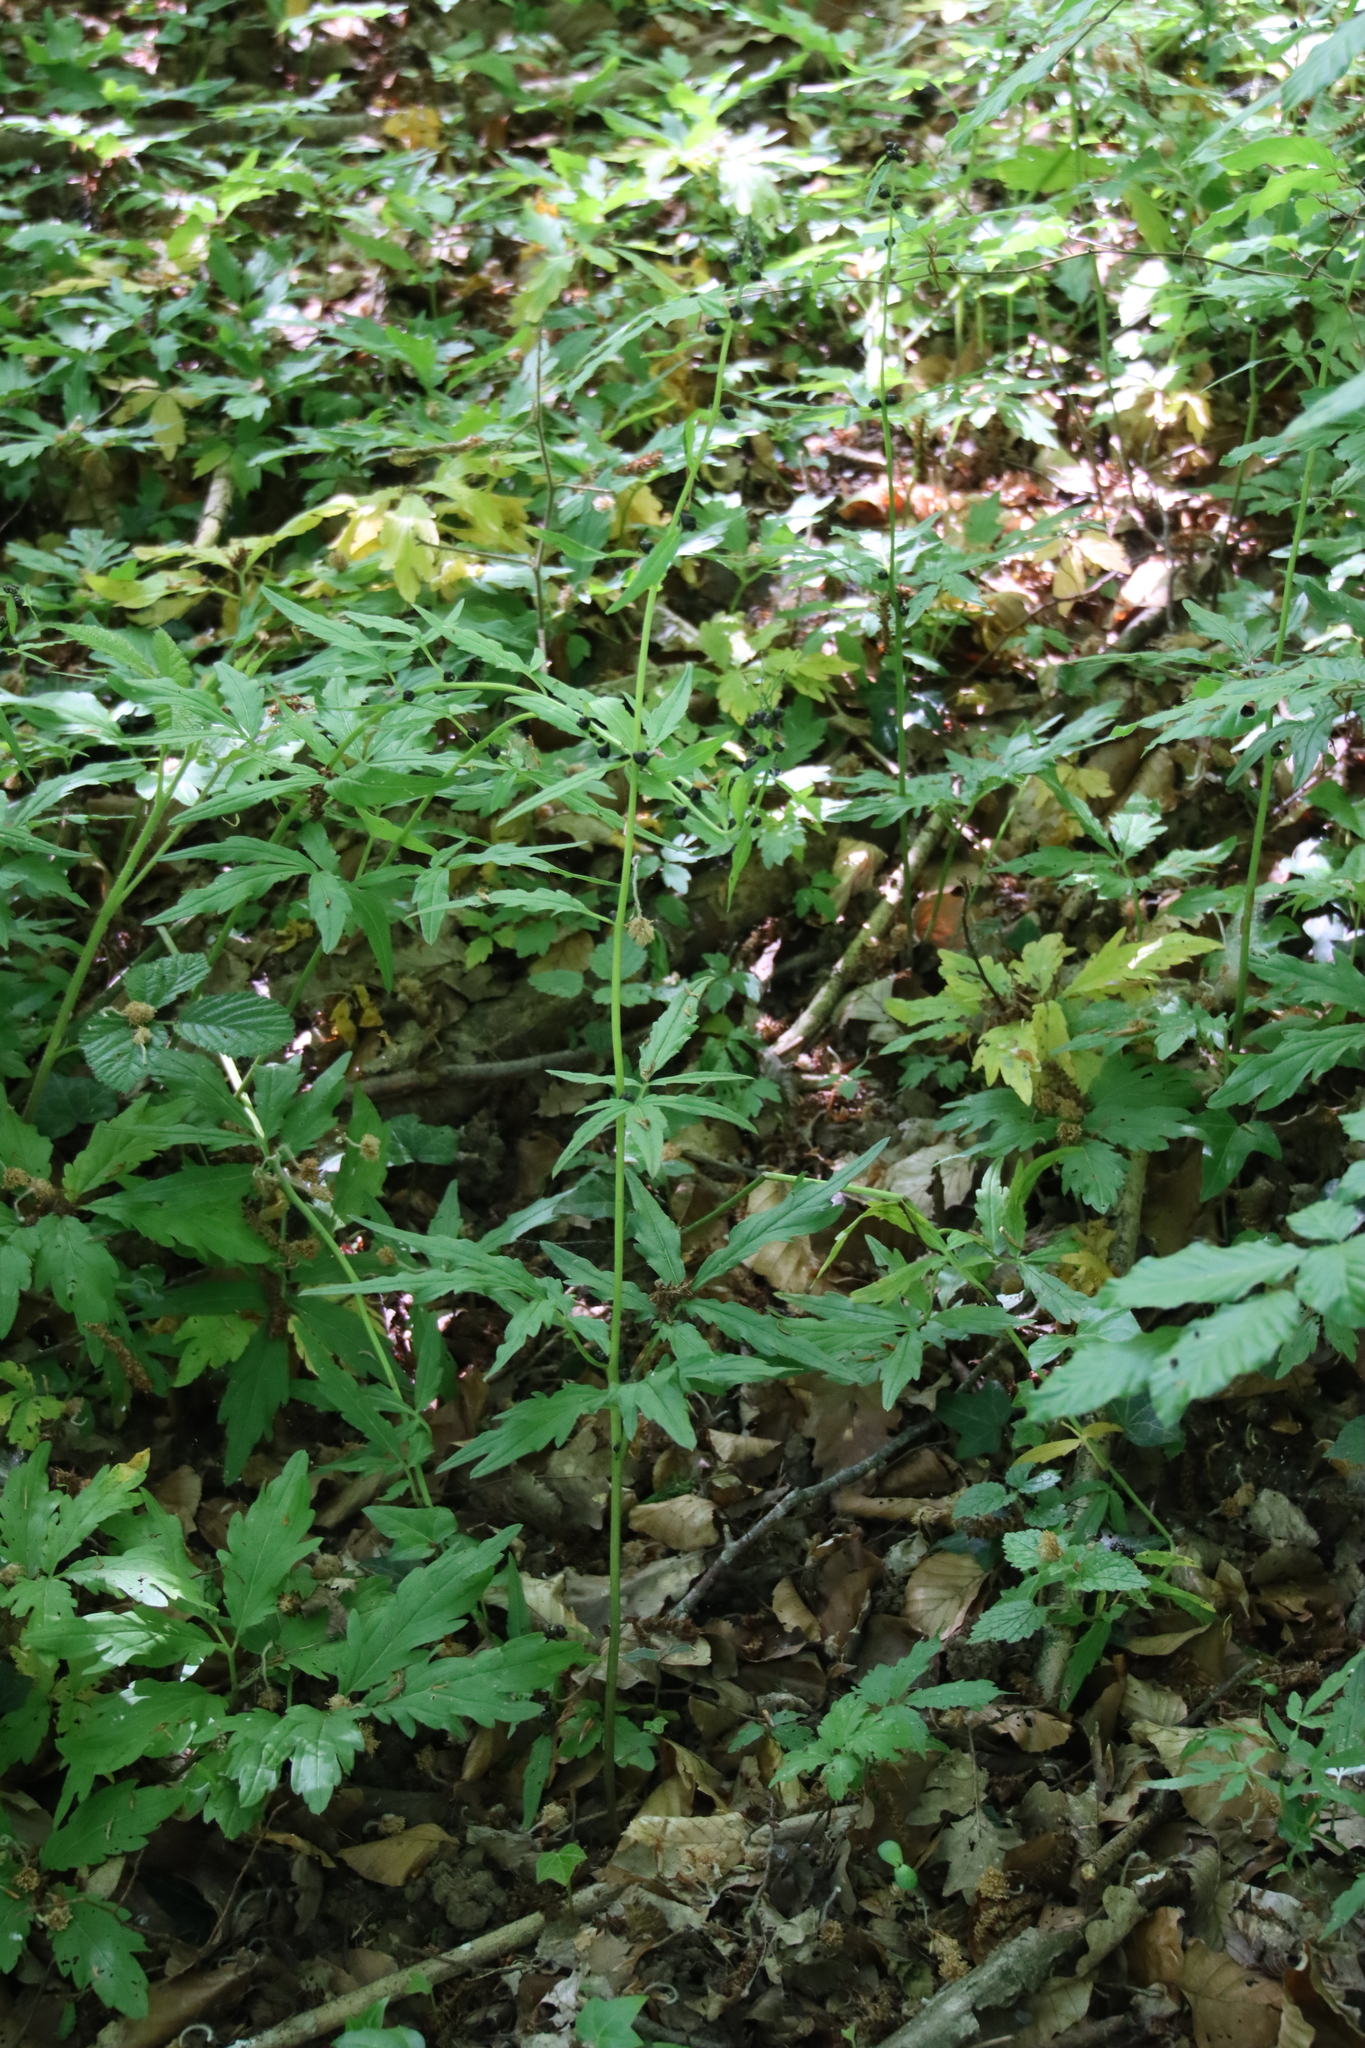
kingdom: Plantae
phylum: Tracheophyta
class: Magnoliopsida
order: Brassicales
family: Brassicaceae
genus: Cardamine
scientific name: Cardamine bulbifera
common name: Coralroot bittercress
